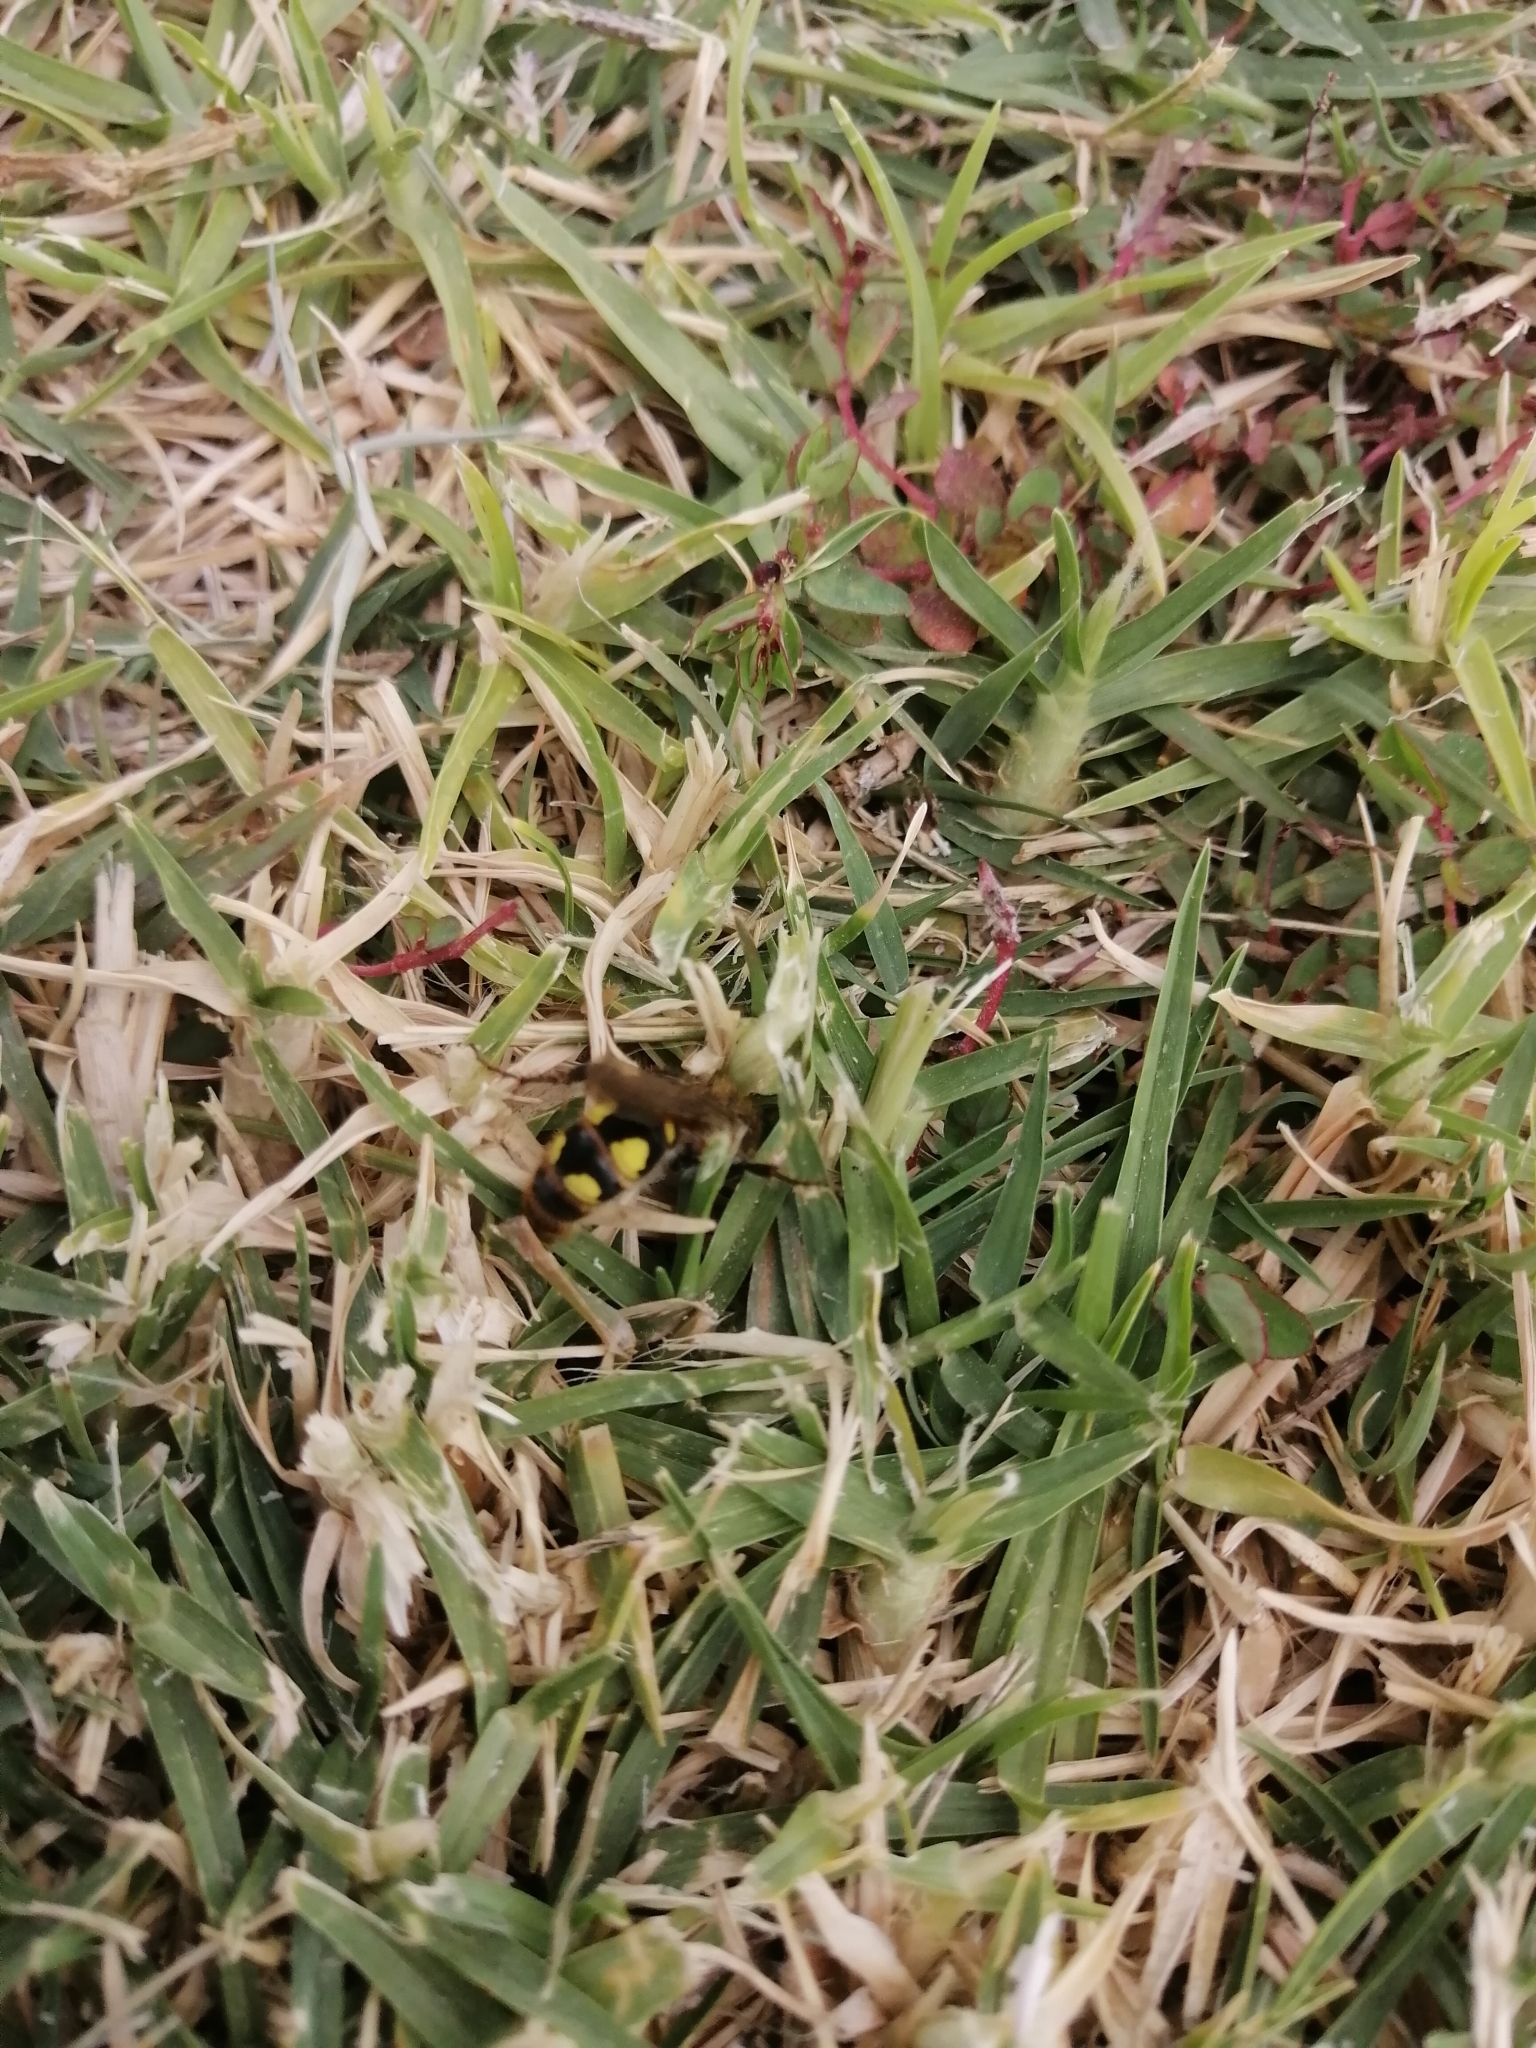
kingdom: Animalia
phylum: Arthropoda
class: Insecta
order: Hymenoptera
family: Scoliidae
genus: Xantocampsomeris
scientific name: Xantocampsomeris limosa
